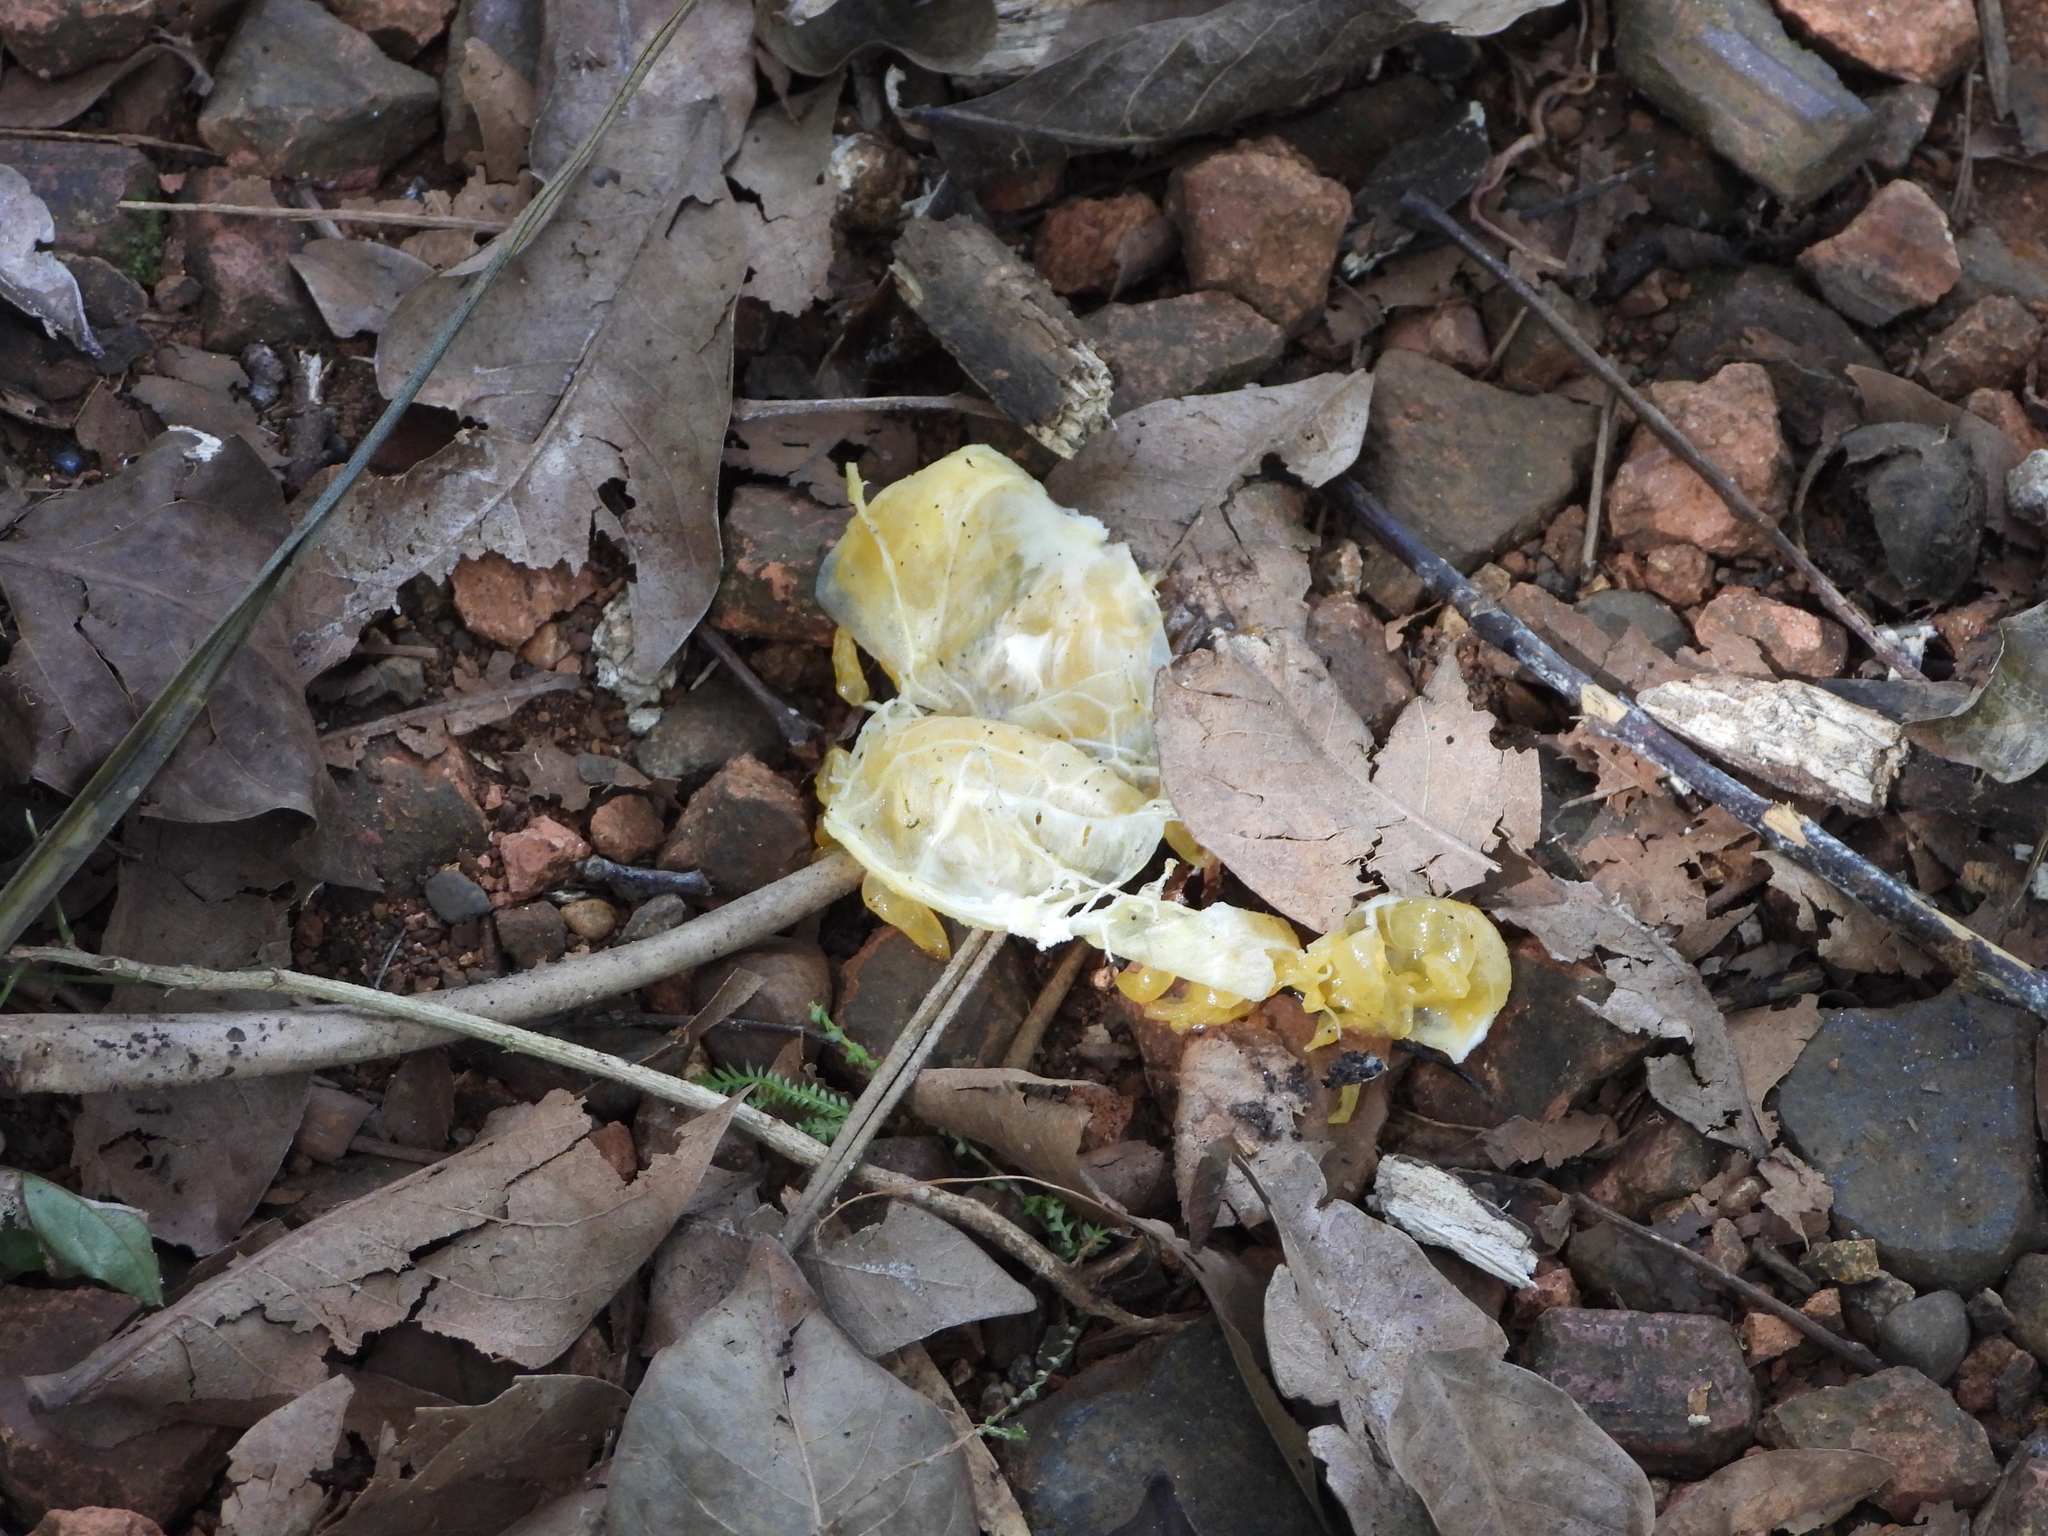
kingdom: Animalia
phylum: Chordata
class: Mammalia
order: Primates
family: Cebidae
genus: Cebus
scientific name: Cebus imitator
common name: Panamanian white-faced capuchin
